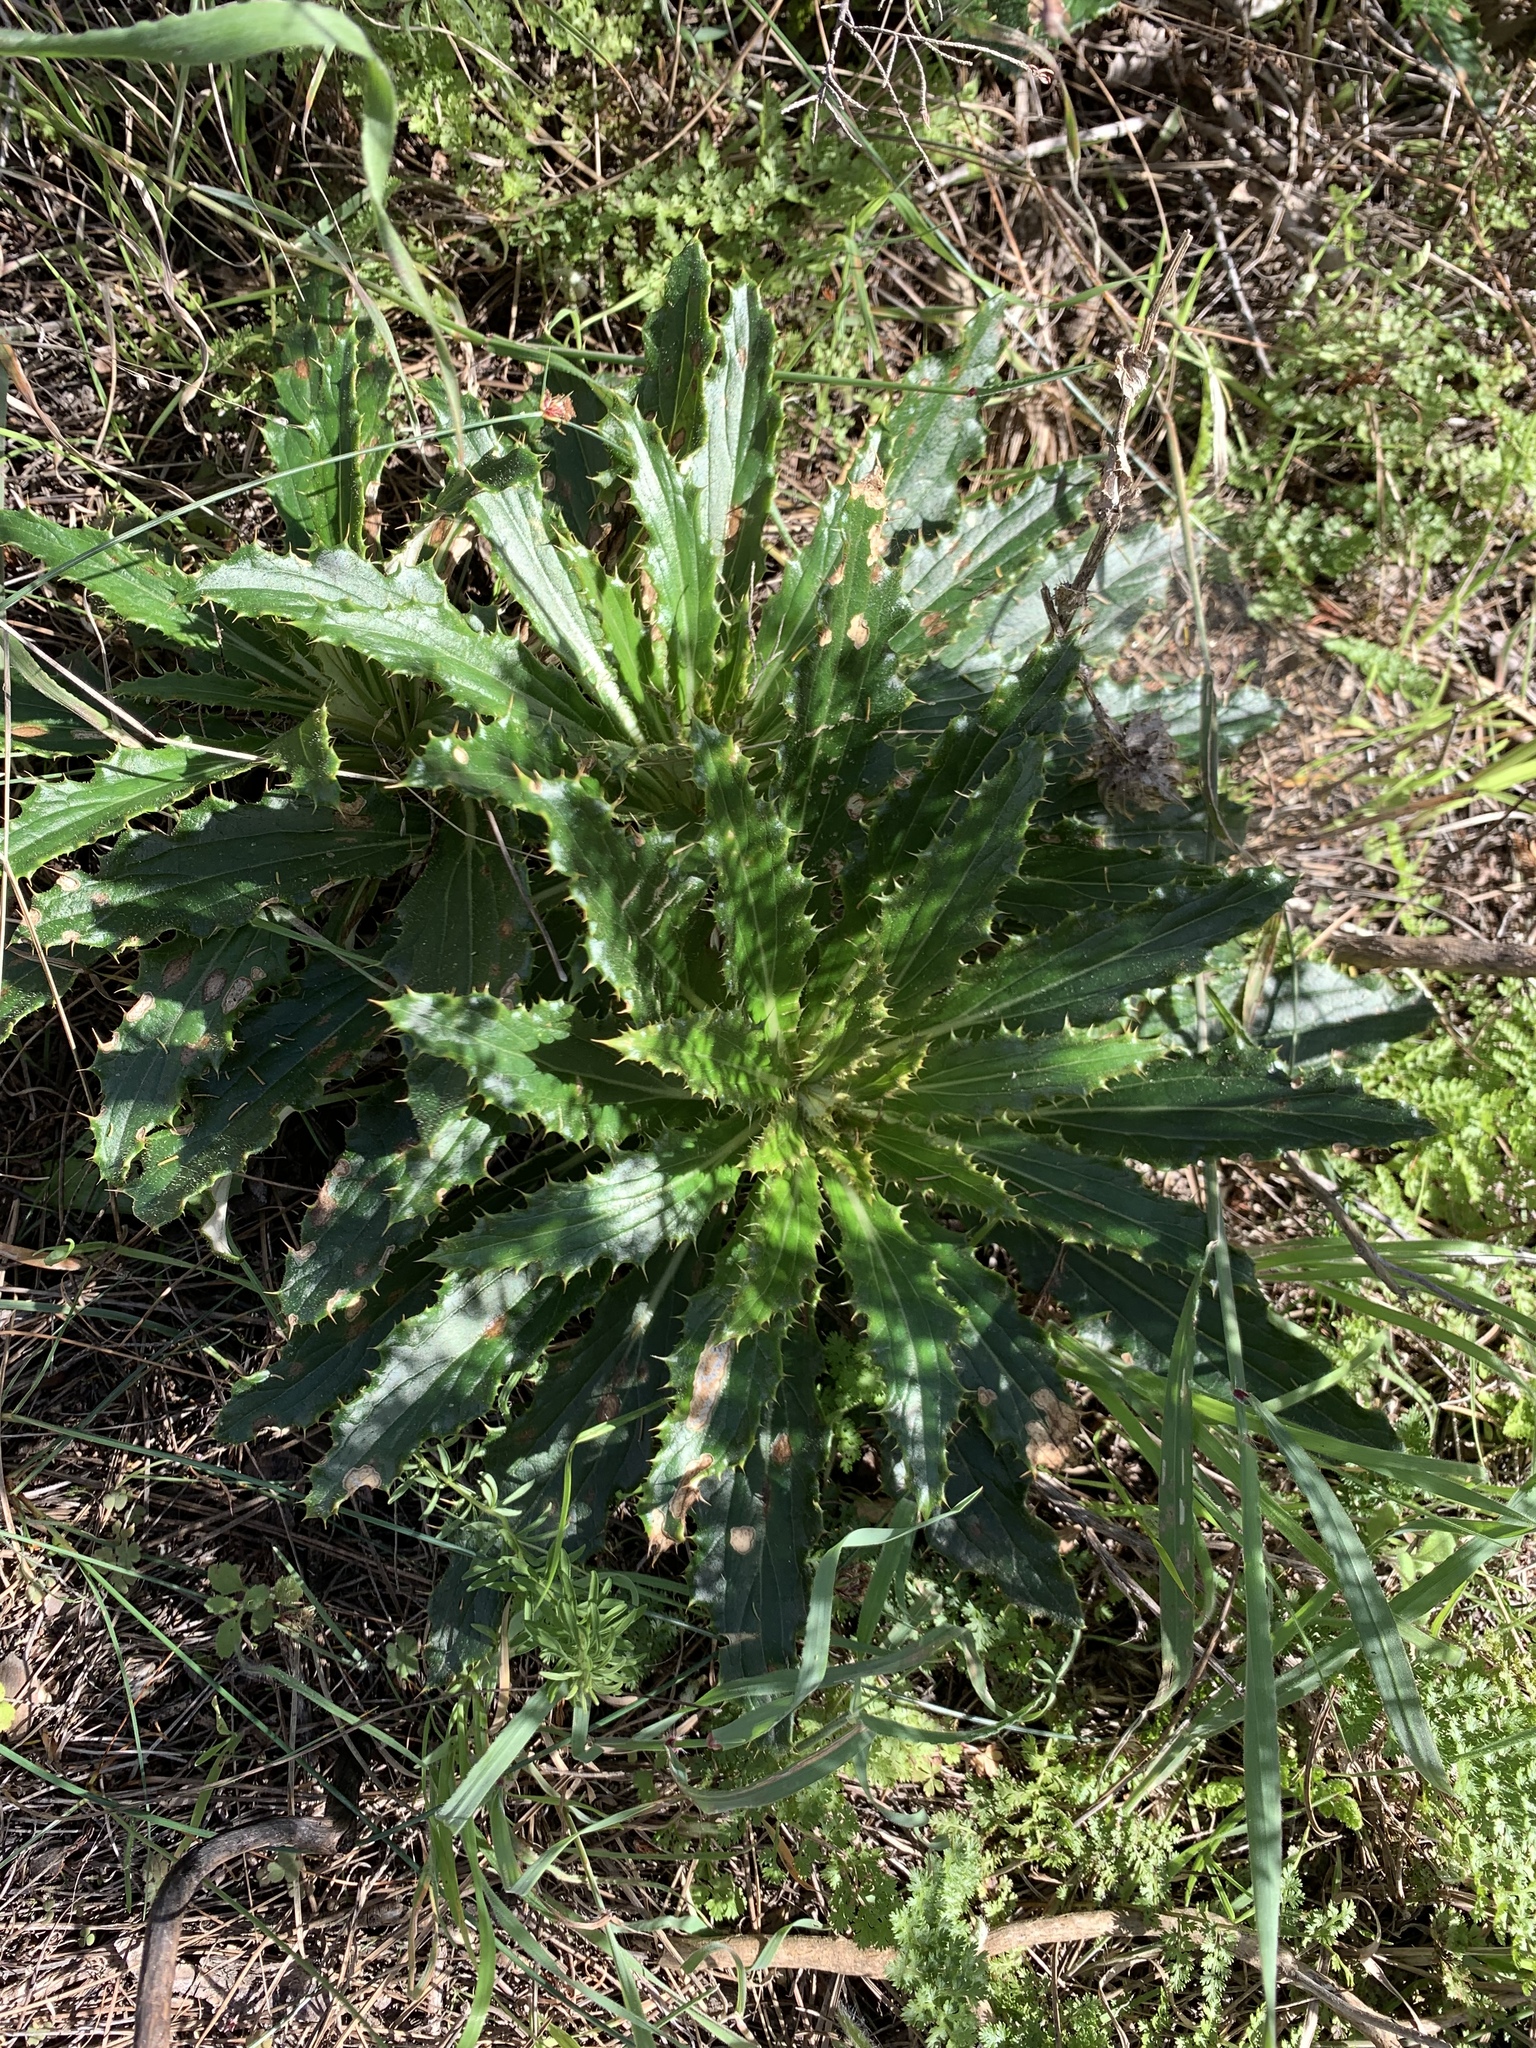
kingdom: Plantae
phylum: Tracheophyta
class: Magnoliopsida
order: Asterales
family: Asteraceae
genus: Berkheya
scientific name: Berkheya armata
